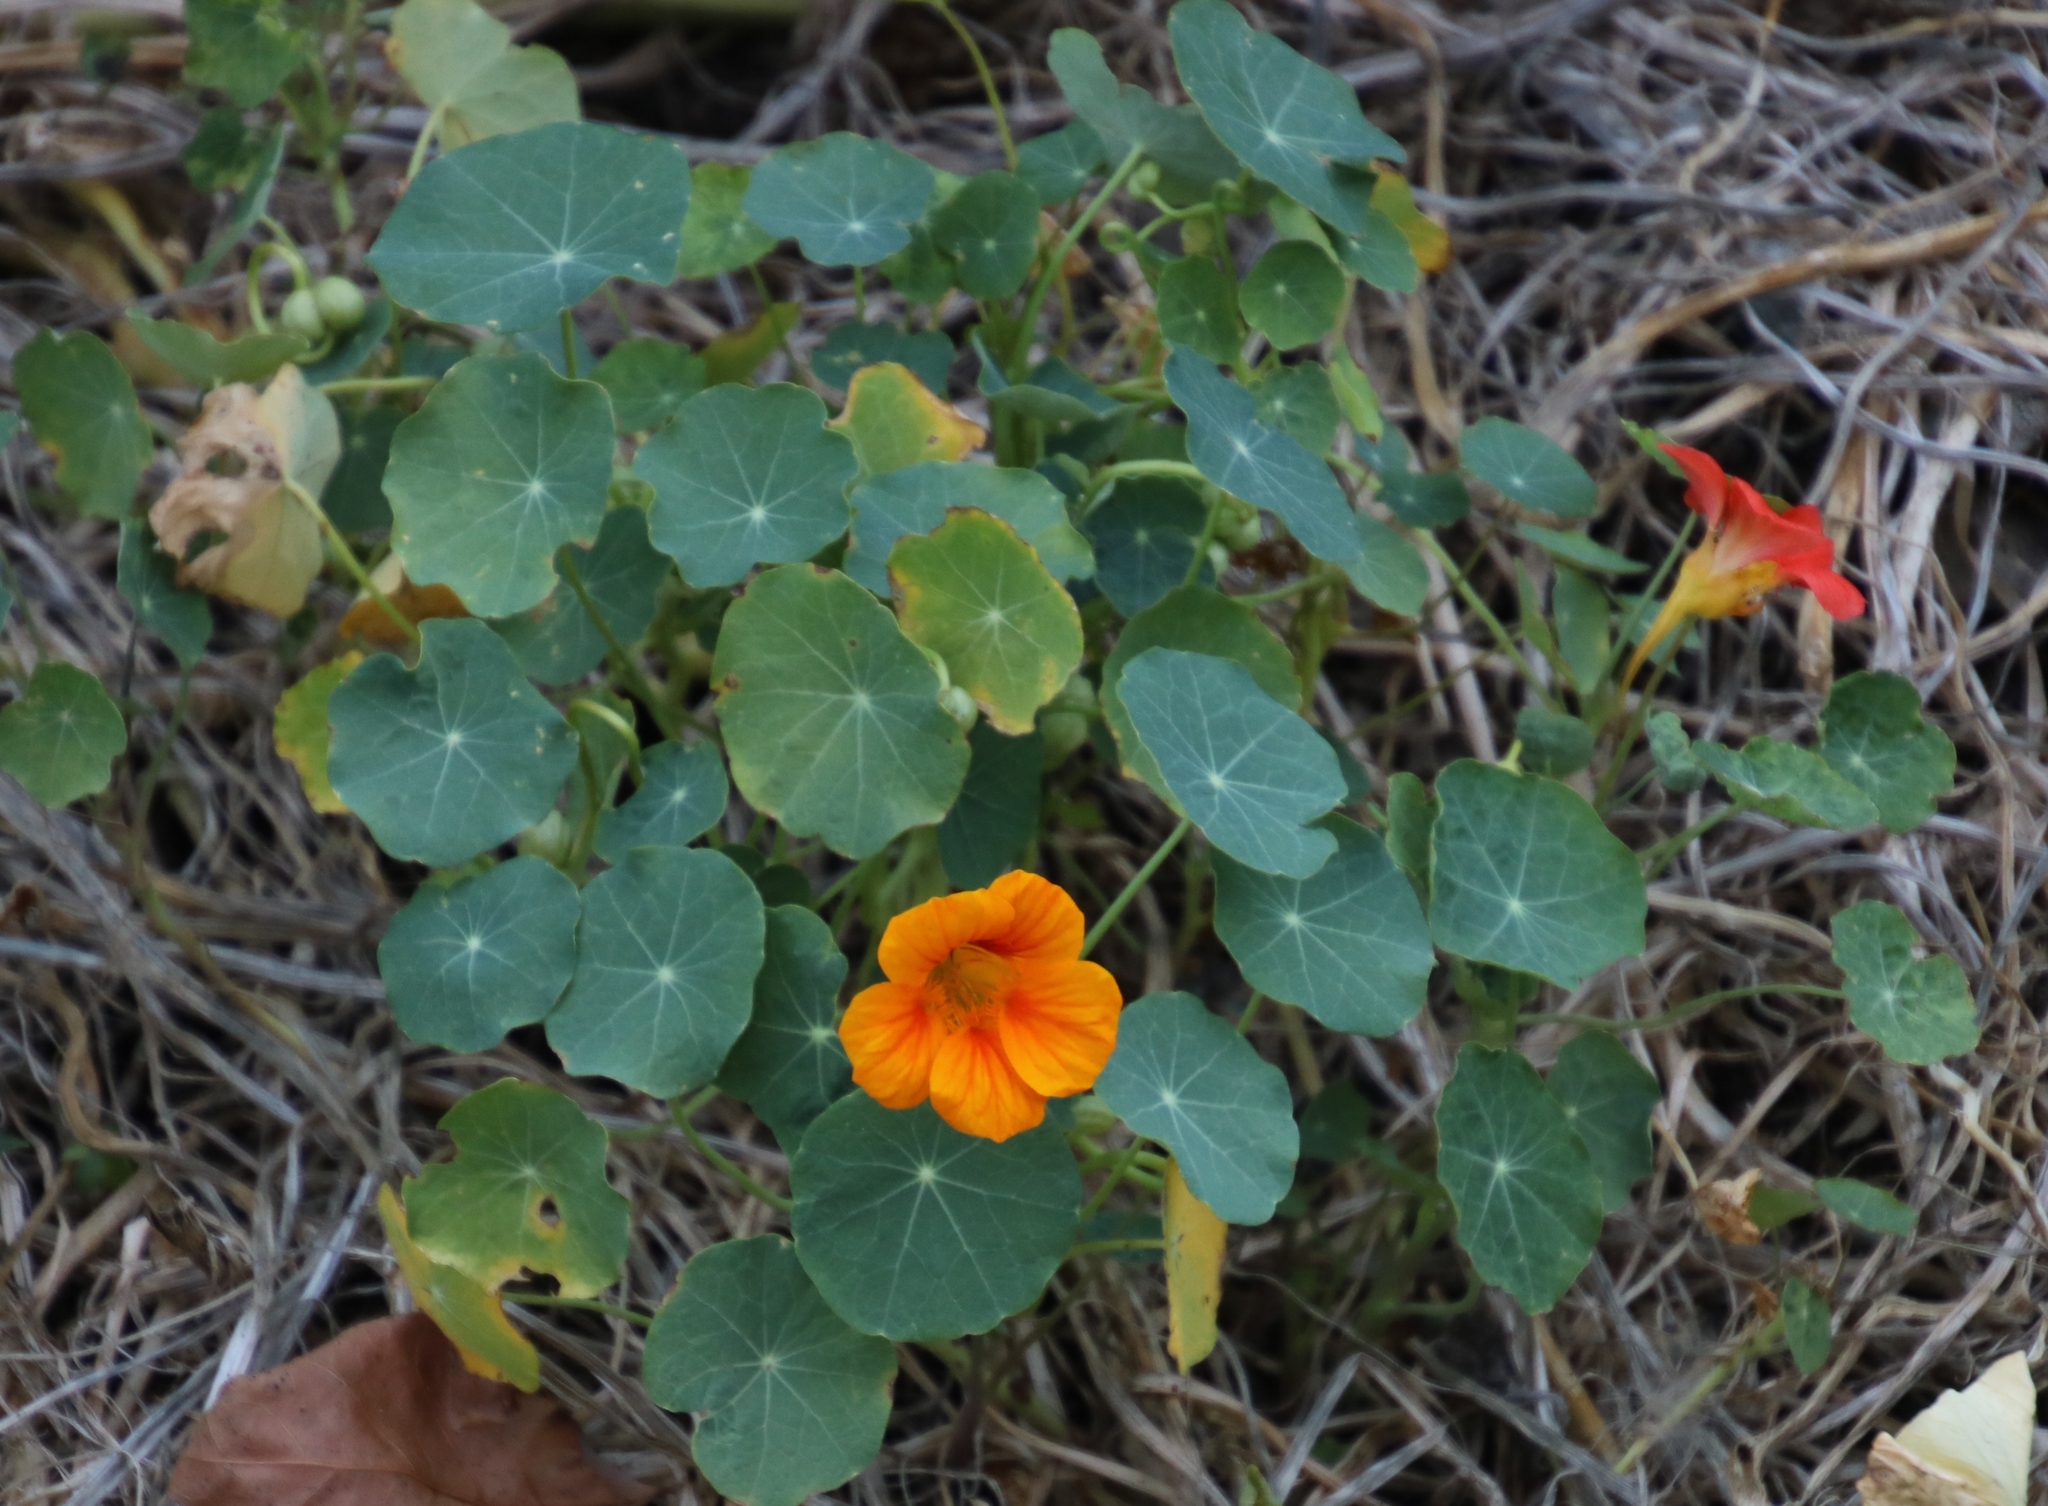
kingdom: Plantae
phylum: Tracheophyta
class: Magnoliopsida
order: Brassicales
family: Tropaeolaceae
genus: Tropaeolum
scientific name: Tropaeolum majus
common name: Nasturtium
